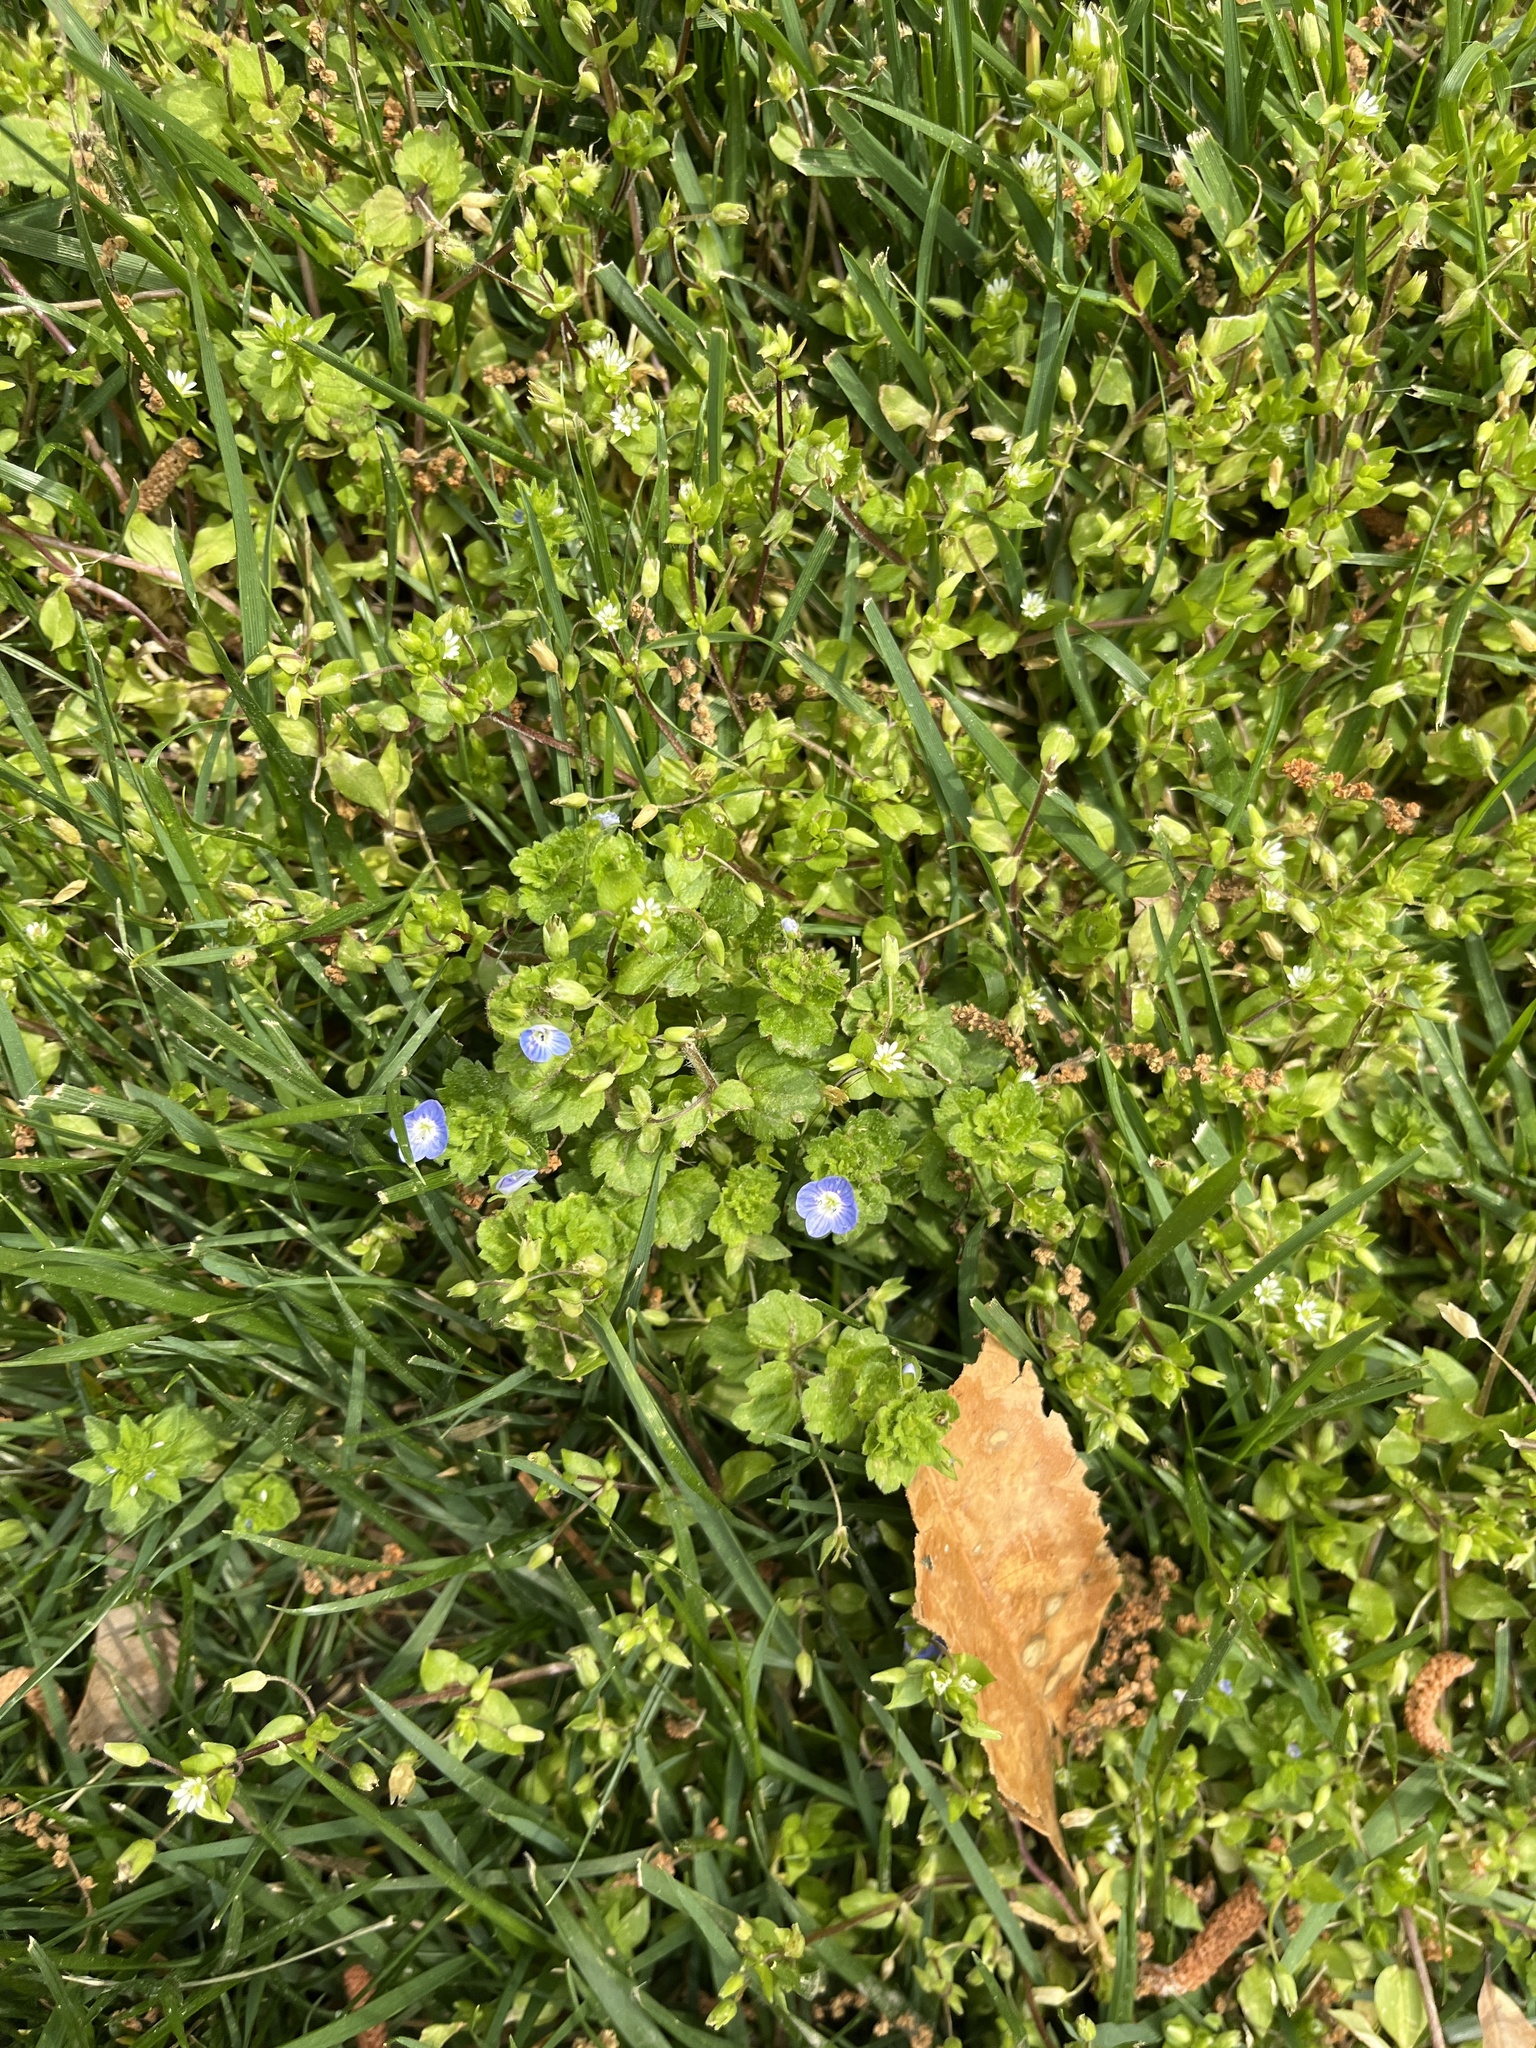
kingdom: Plantae
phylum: Tracheophyta
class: Magnoliopsida
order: Lamiales
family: Plantaginaceae
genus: Veronica
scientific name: Veronica persica
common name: Common field-speedwell
